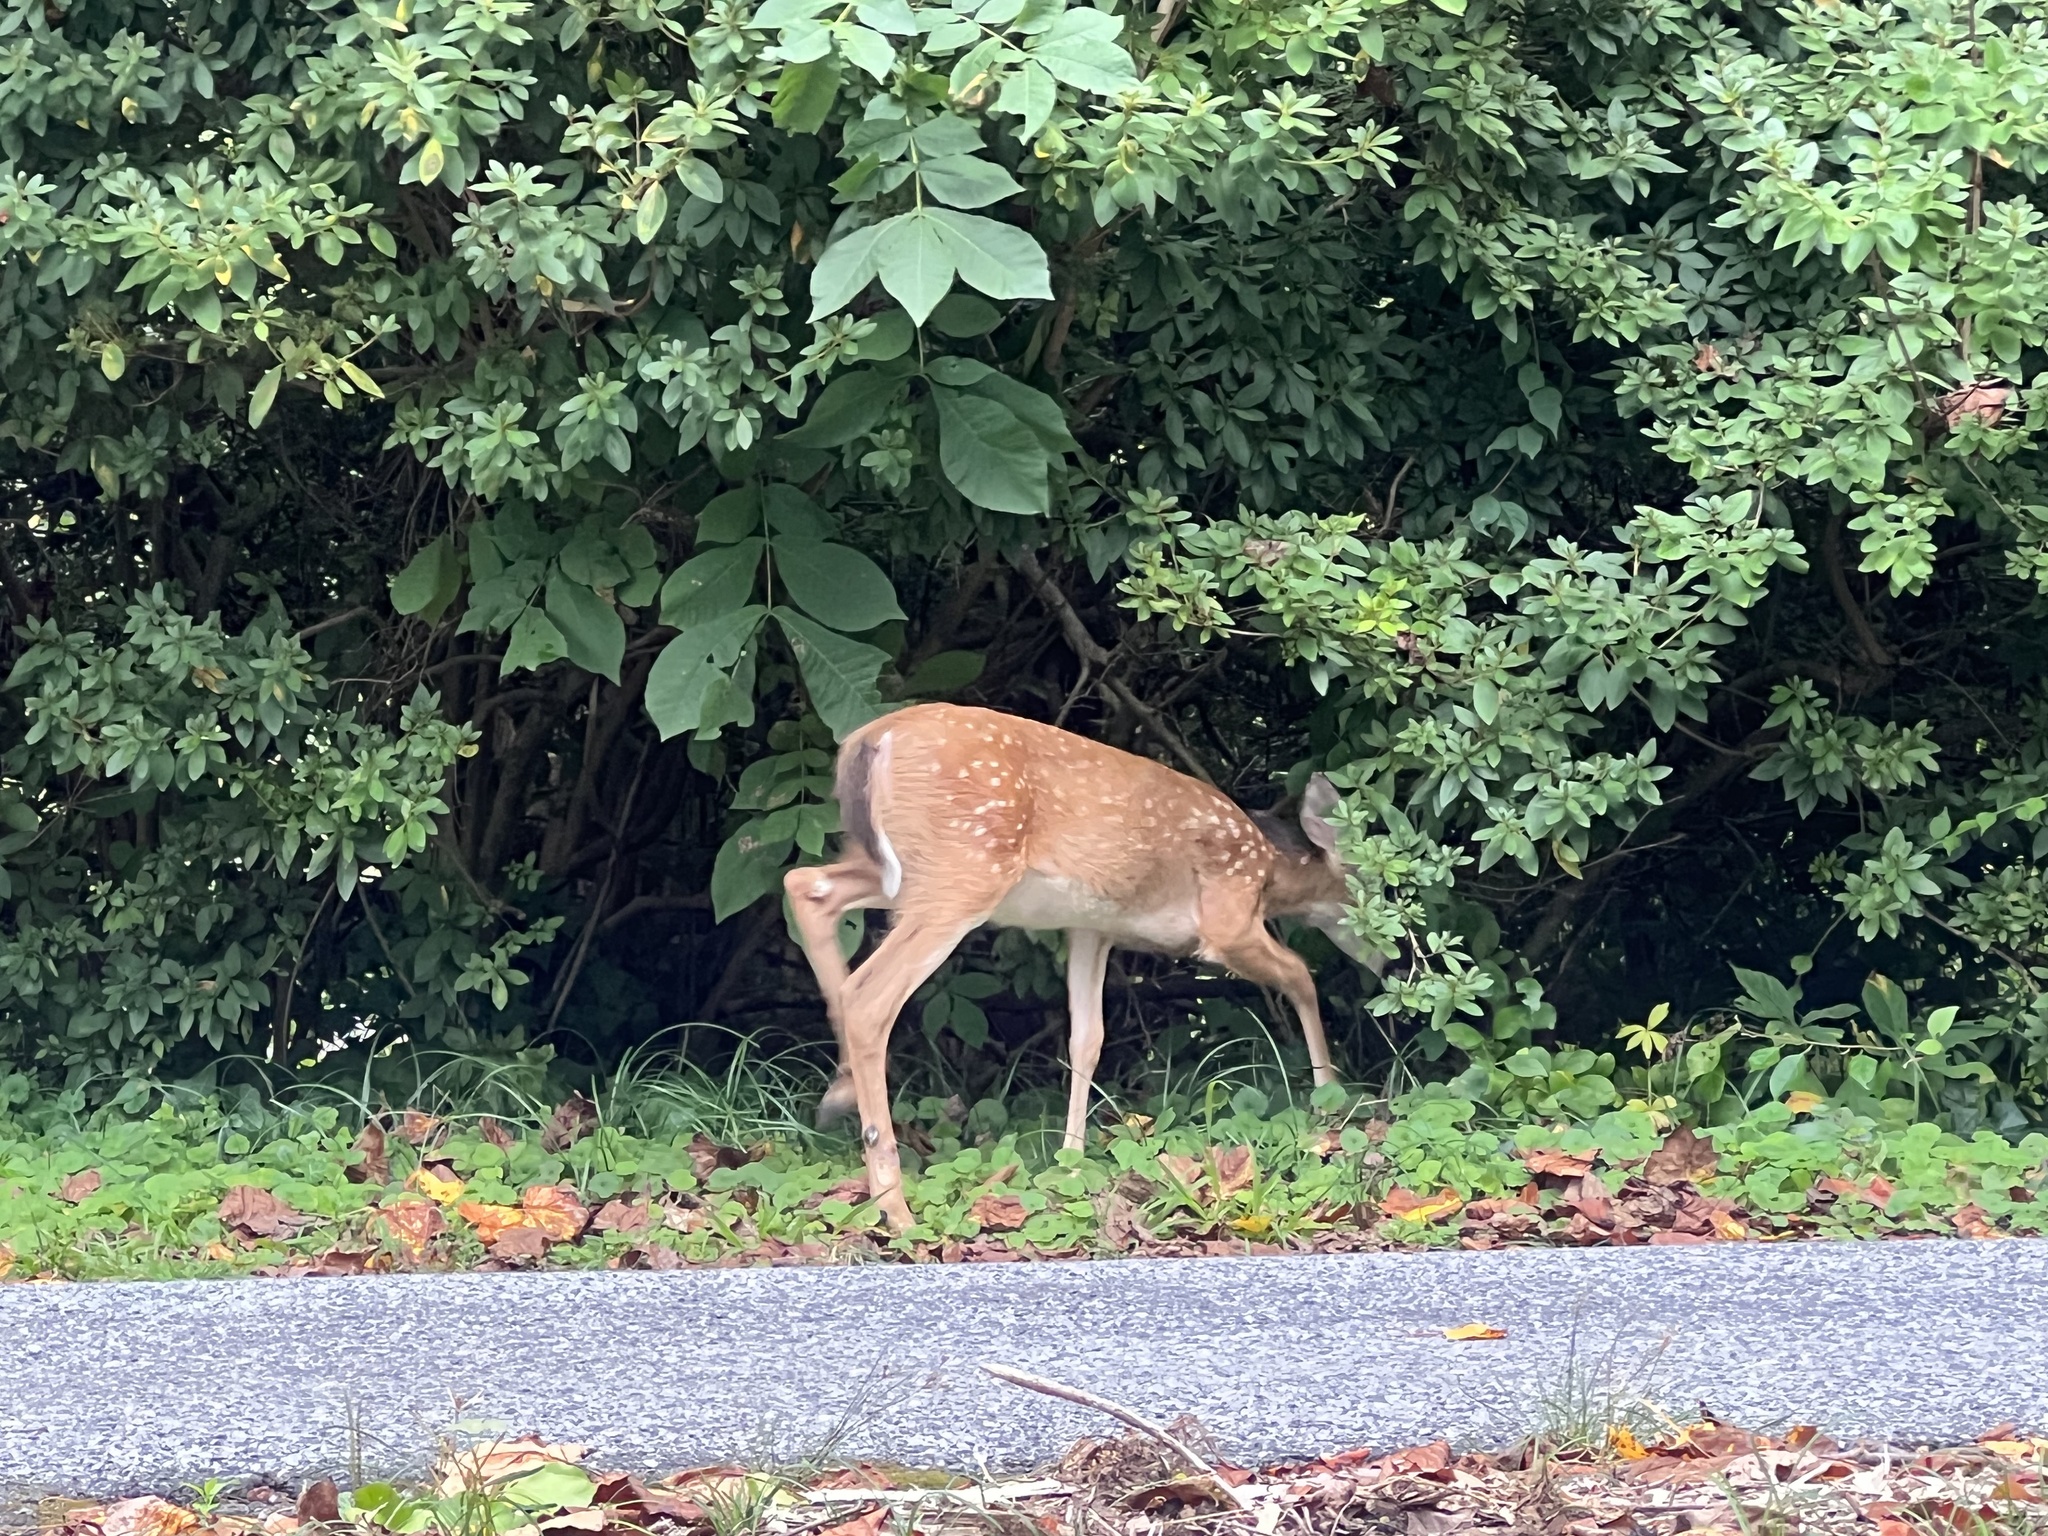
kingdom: Animalia
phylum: Chordata
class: Mammalia
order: Artiodactyla
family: Cervidae
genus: Odocoileus
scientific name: Odocoileus virginianus
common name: White-tailed deer
